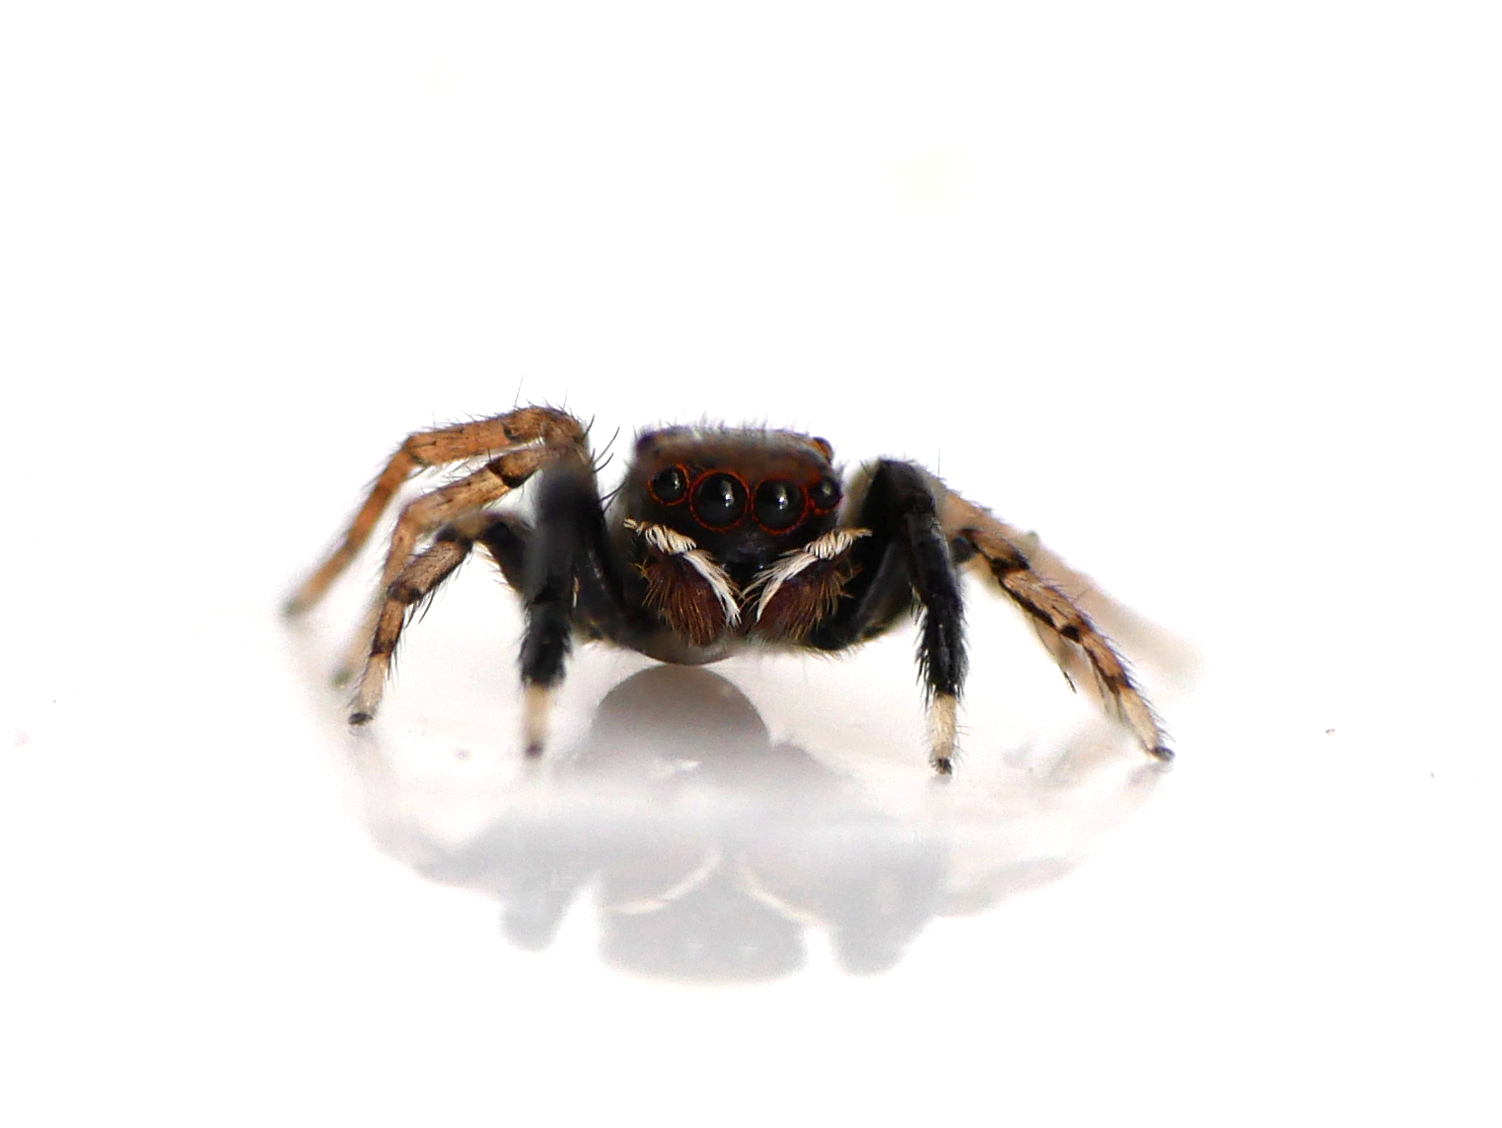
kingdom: Animalia
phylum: Arthropoda
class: Arachnida
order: Araneae
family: Salticidae
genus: Euophrys
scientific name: Euophrys frontalis
